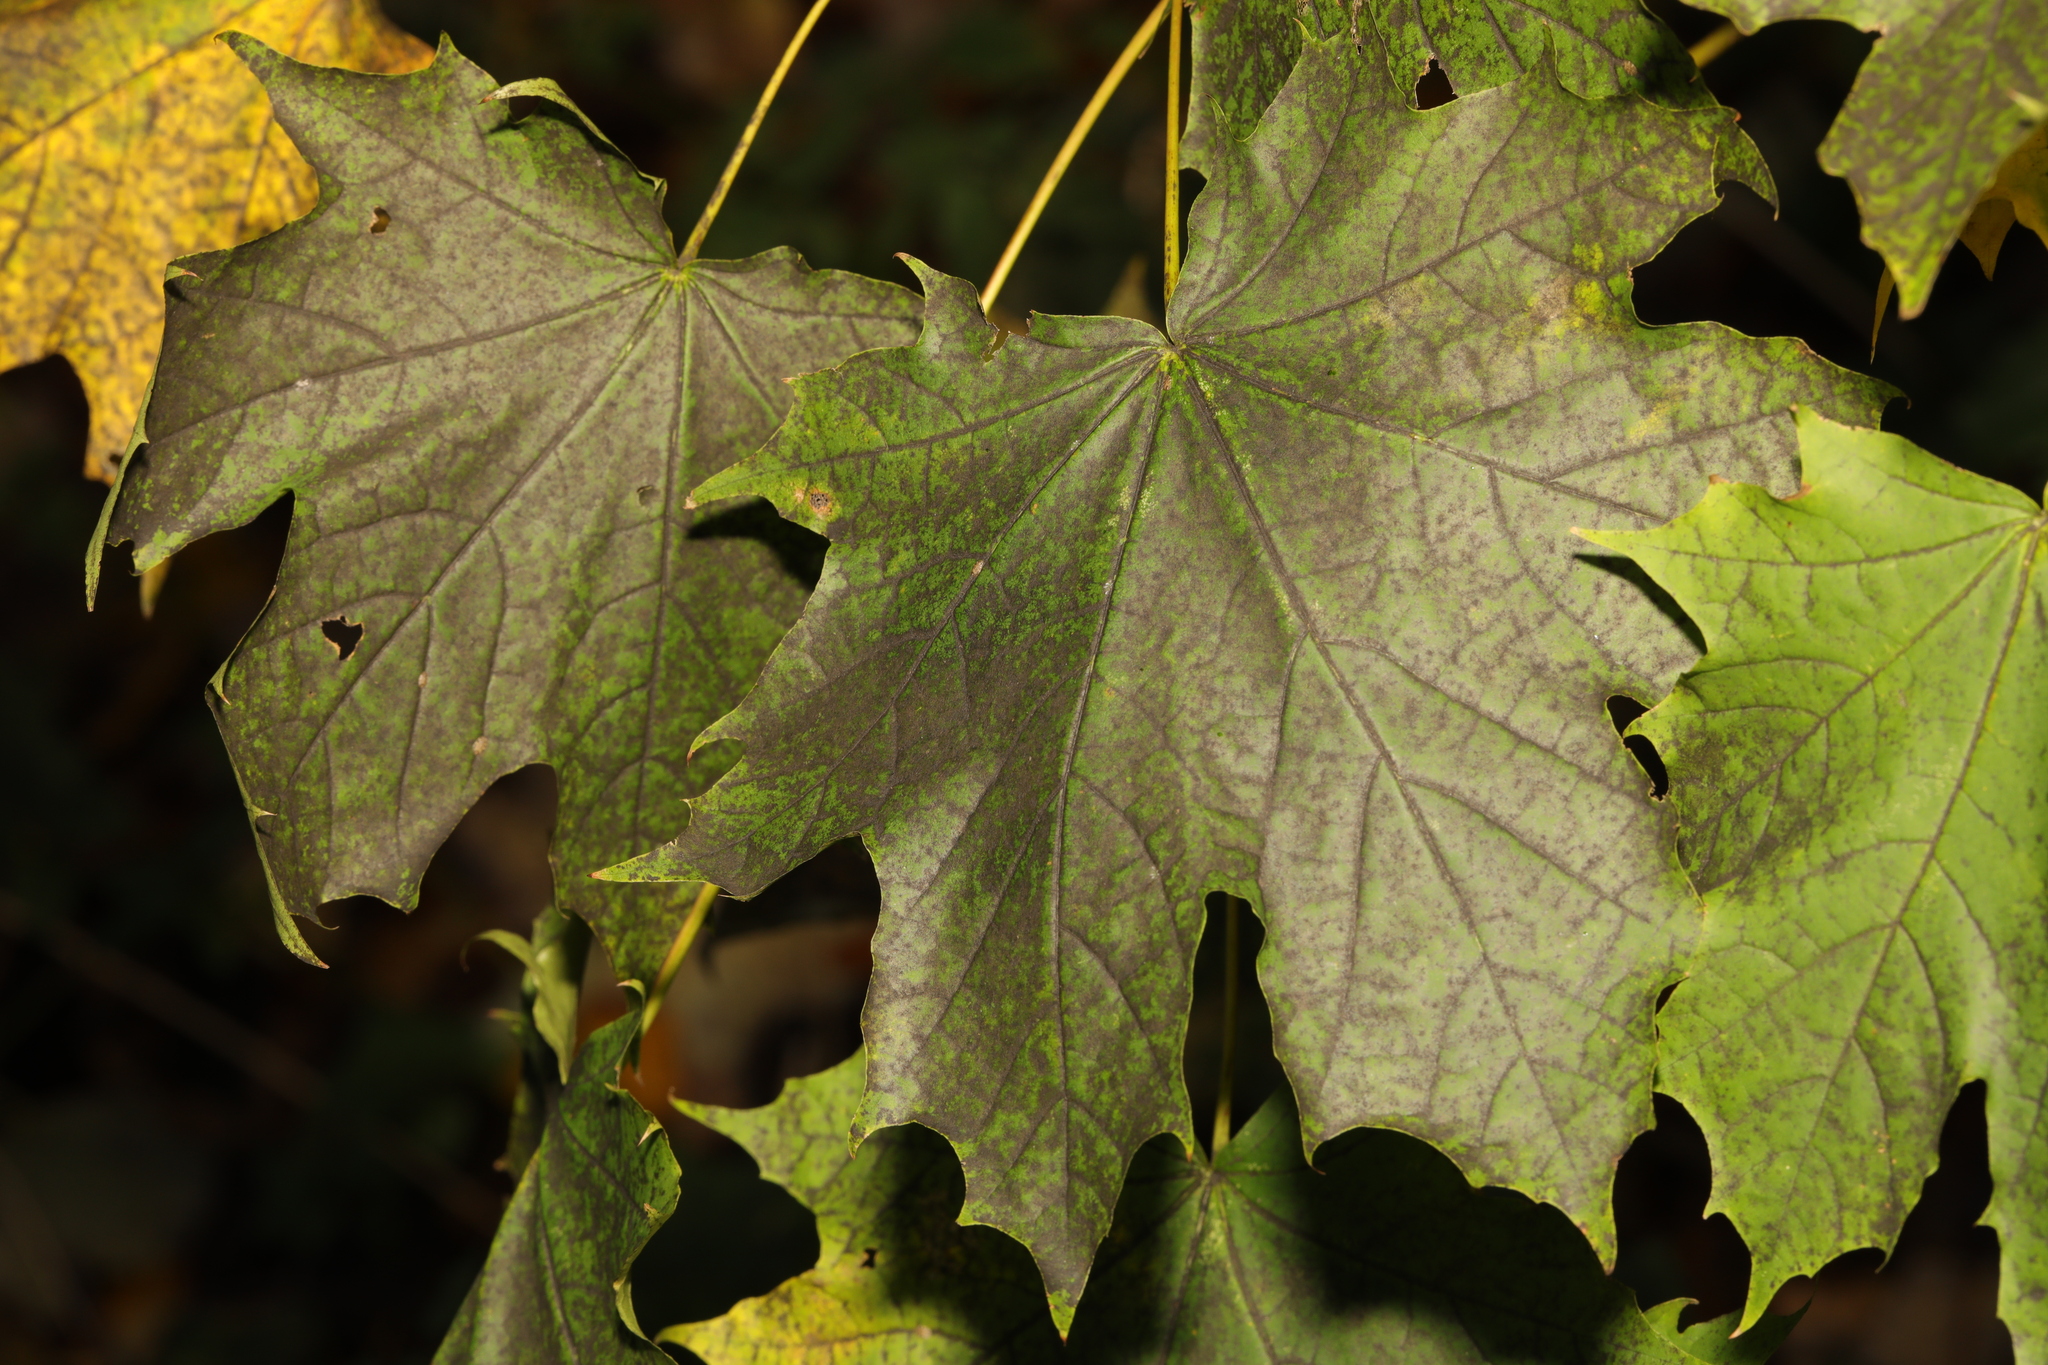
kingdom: Plantae
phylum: Tracheophyta
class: Magnoliopsida
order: Sapindales
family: Sapindaceae
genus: Acer
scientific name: Acer platanoides
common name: Norway maple
